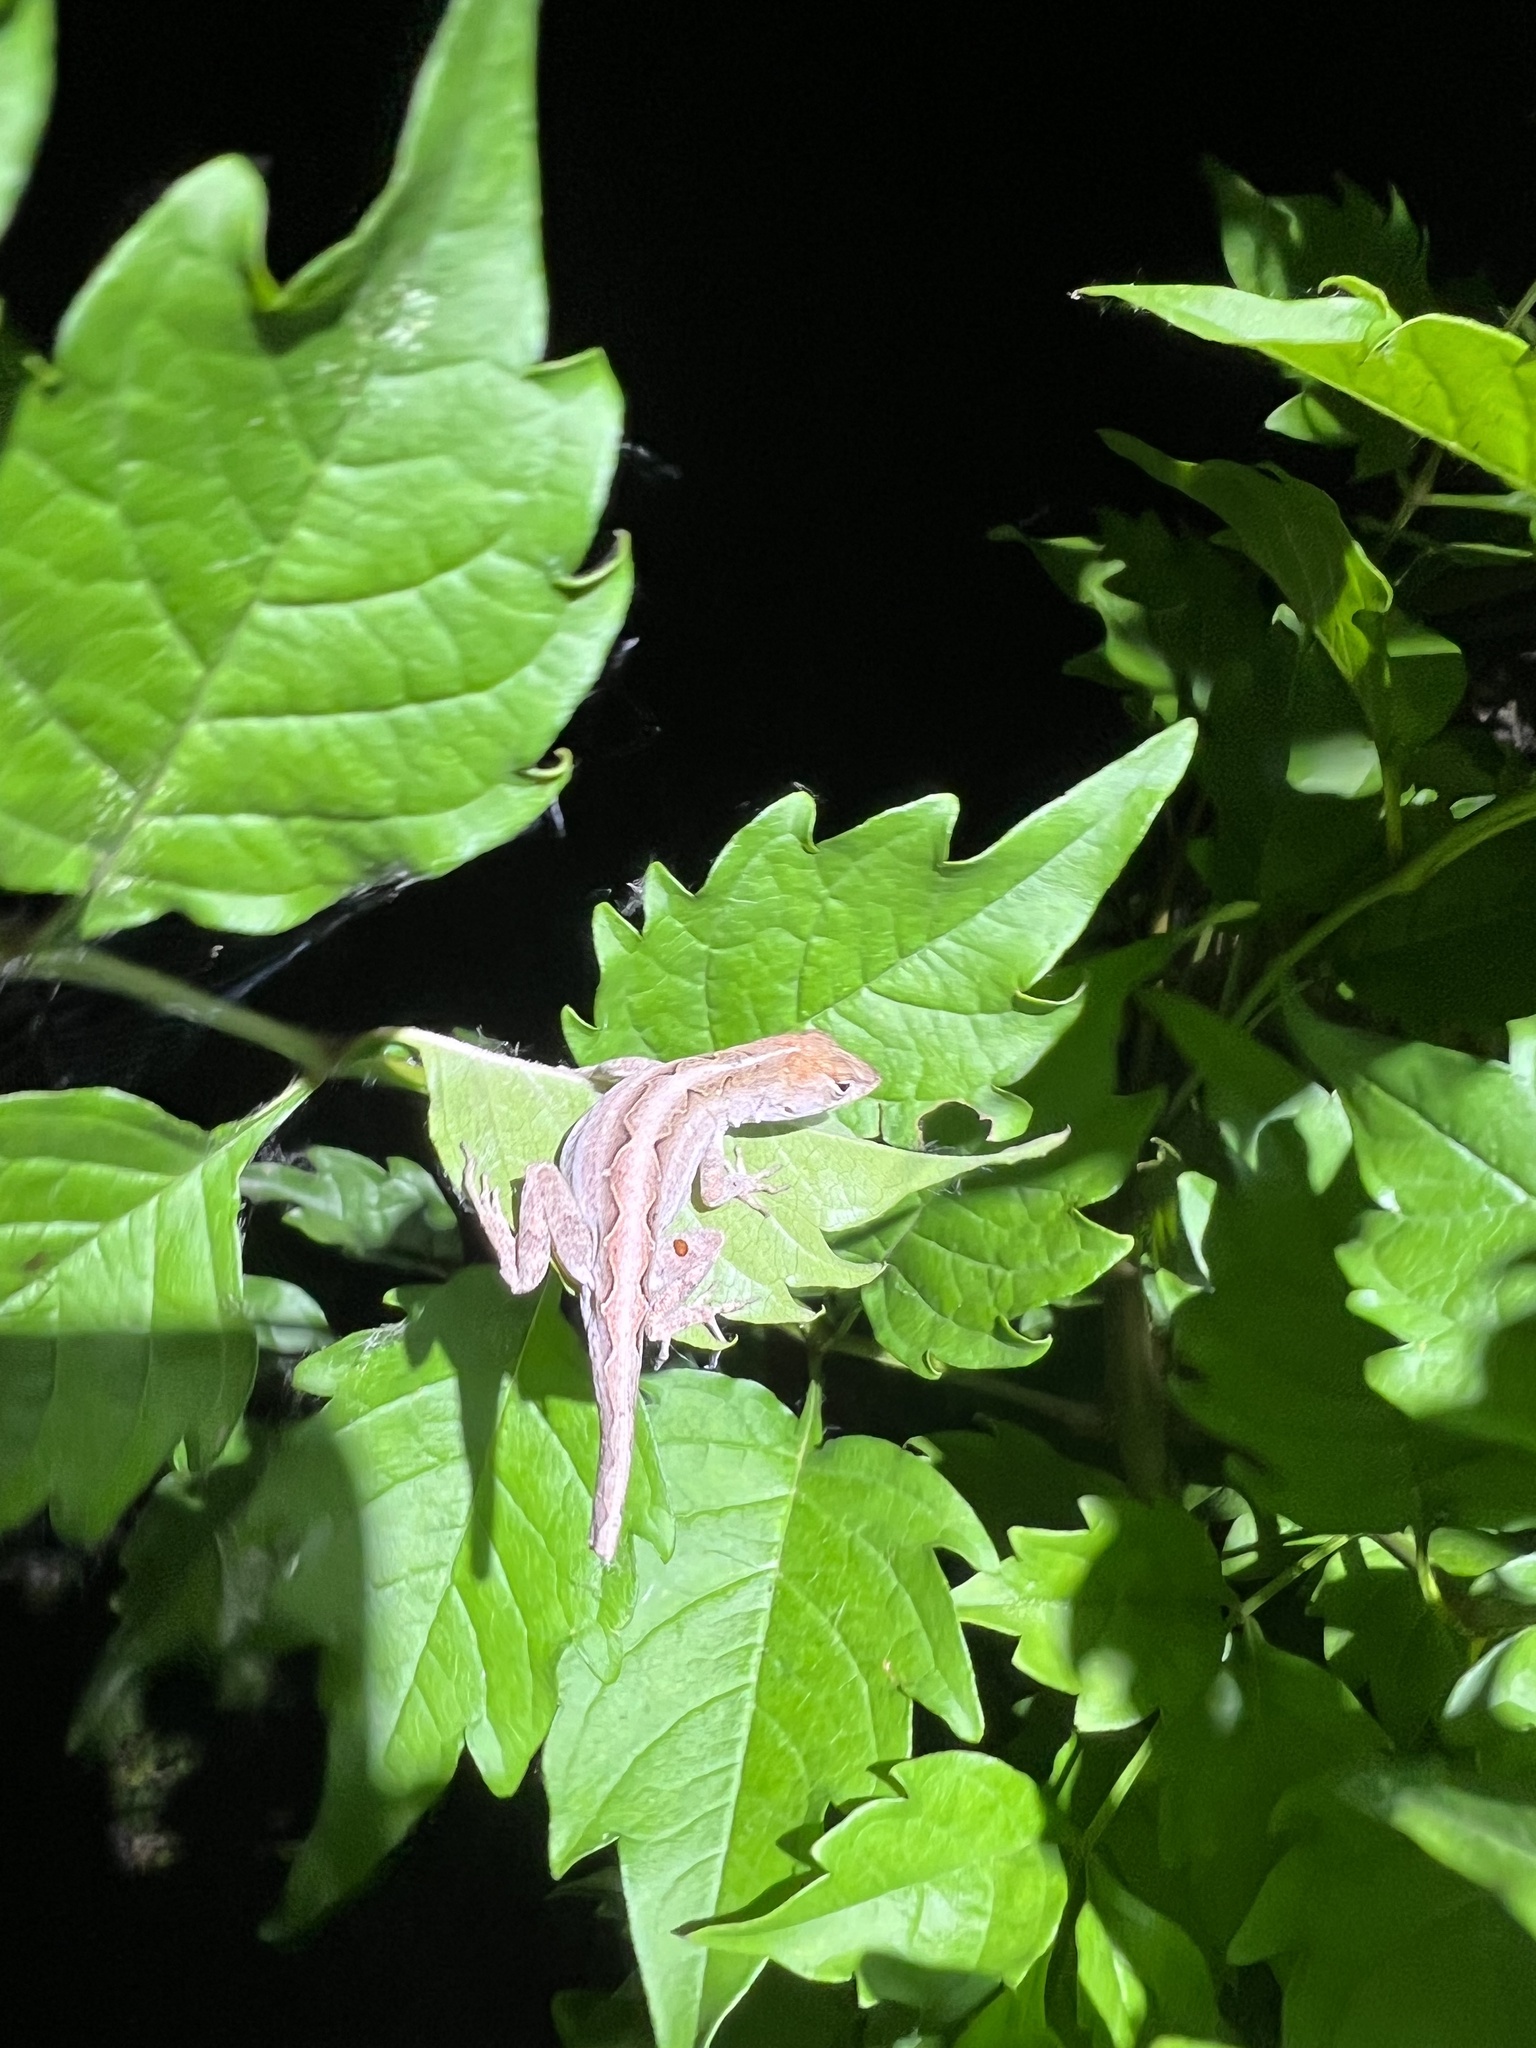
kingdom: Animalia
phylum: Chordata
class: Squamata
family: Dactyloidae
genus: Anolis
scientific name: Anolis sagrei
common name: Brown anole
